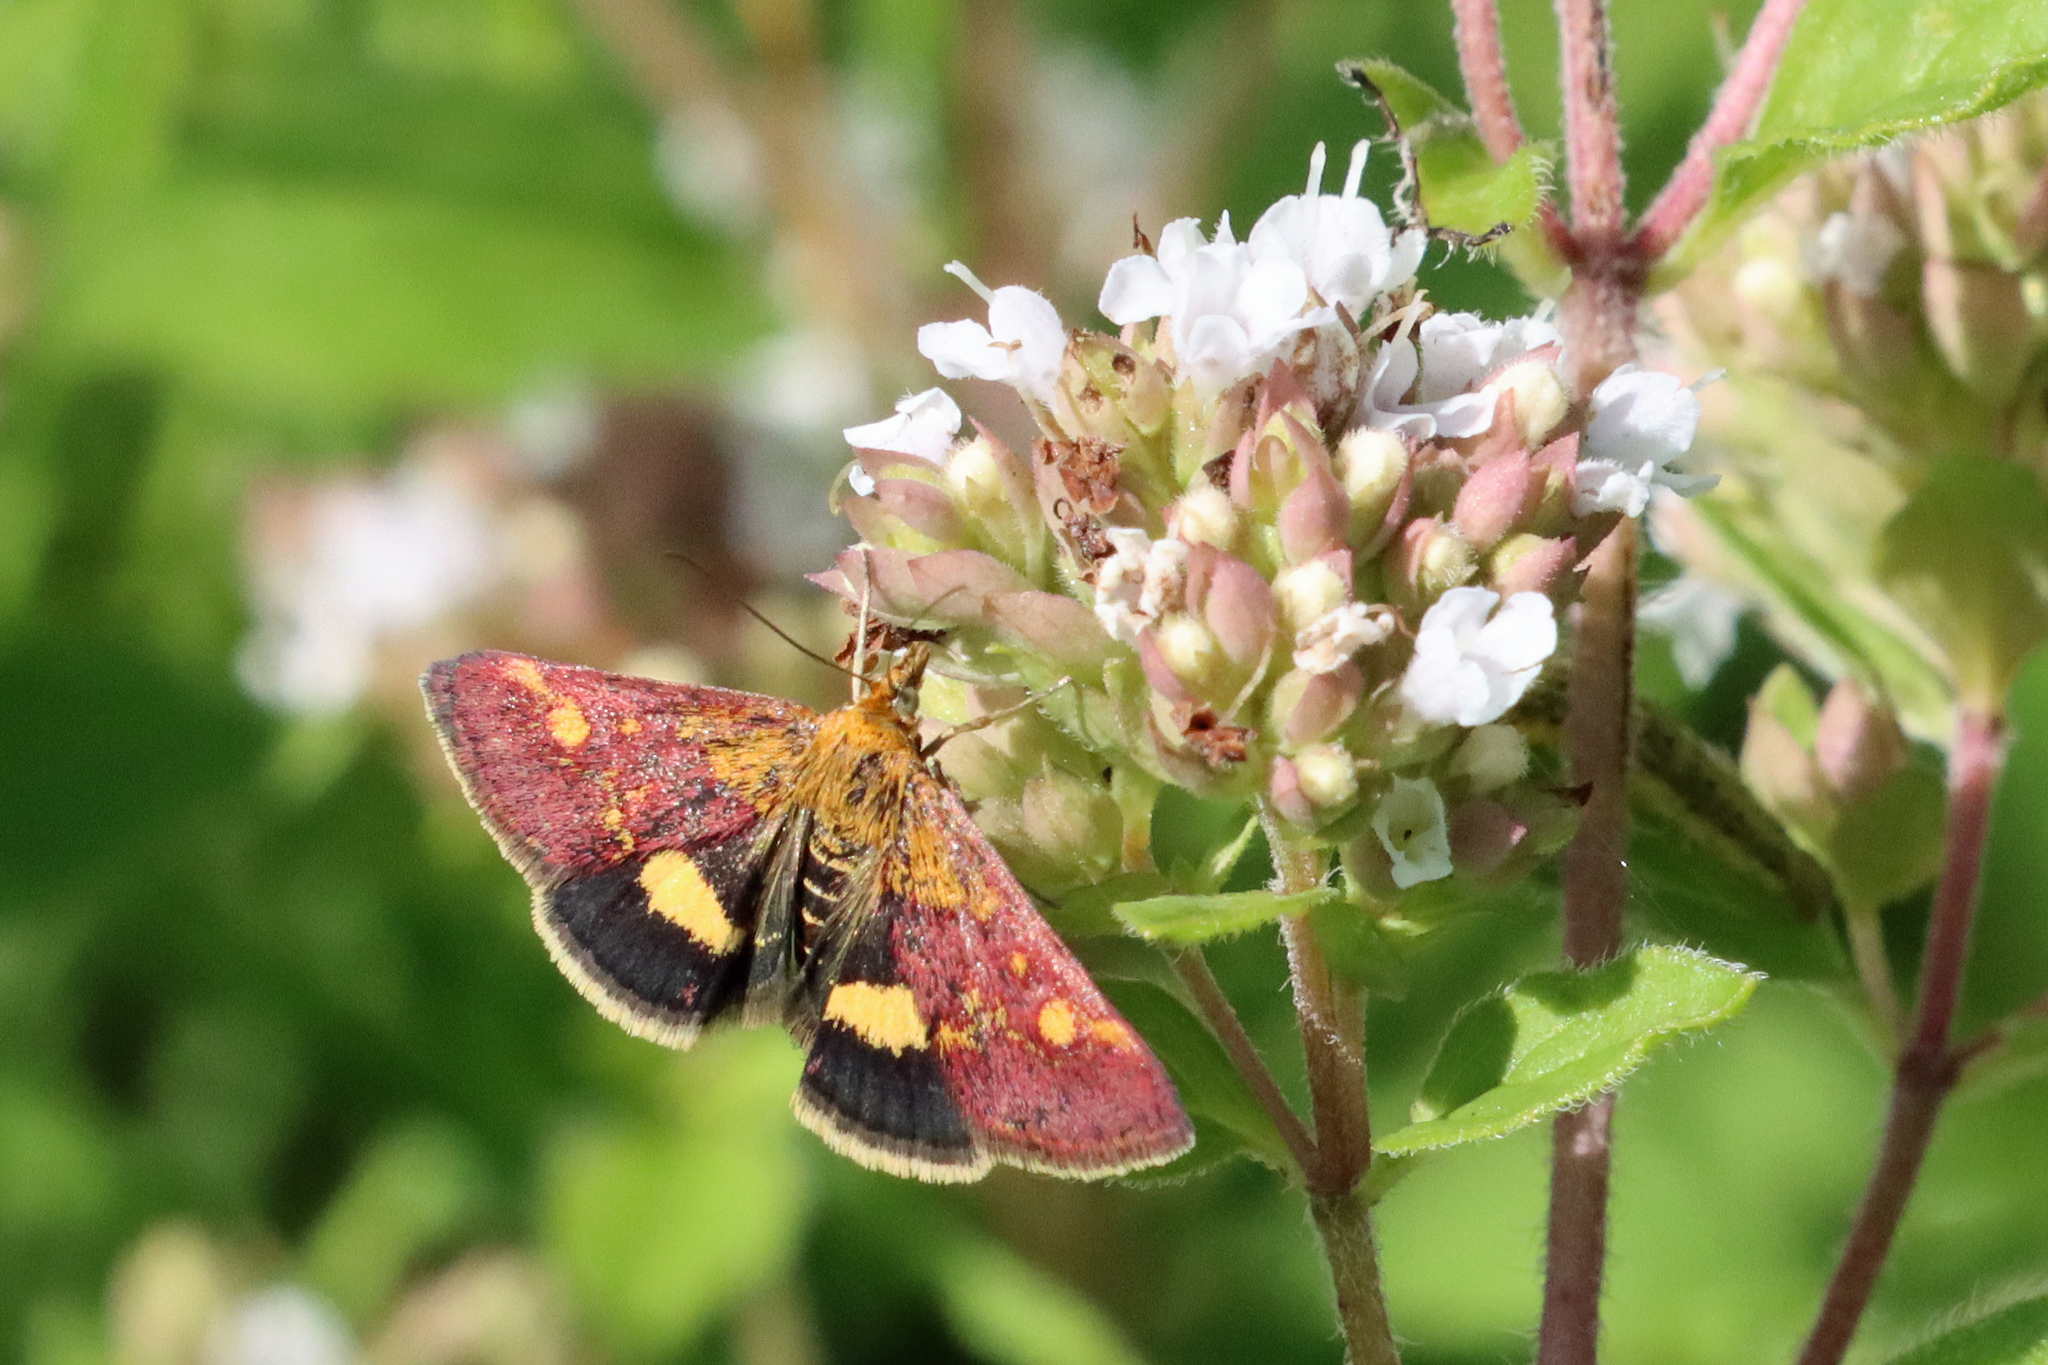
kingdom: Animalia
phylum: Arthropoda
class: Insecta
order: Lepidoptera
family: Crambidae
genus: Pyrausta
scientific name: Pyrausta aurata
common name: Small purple & gold
